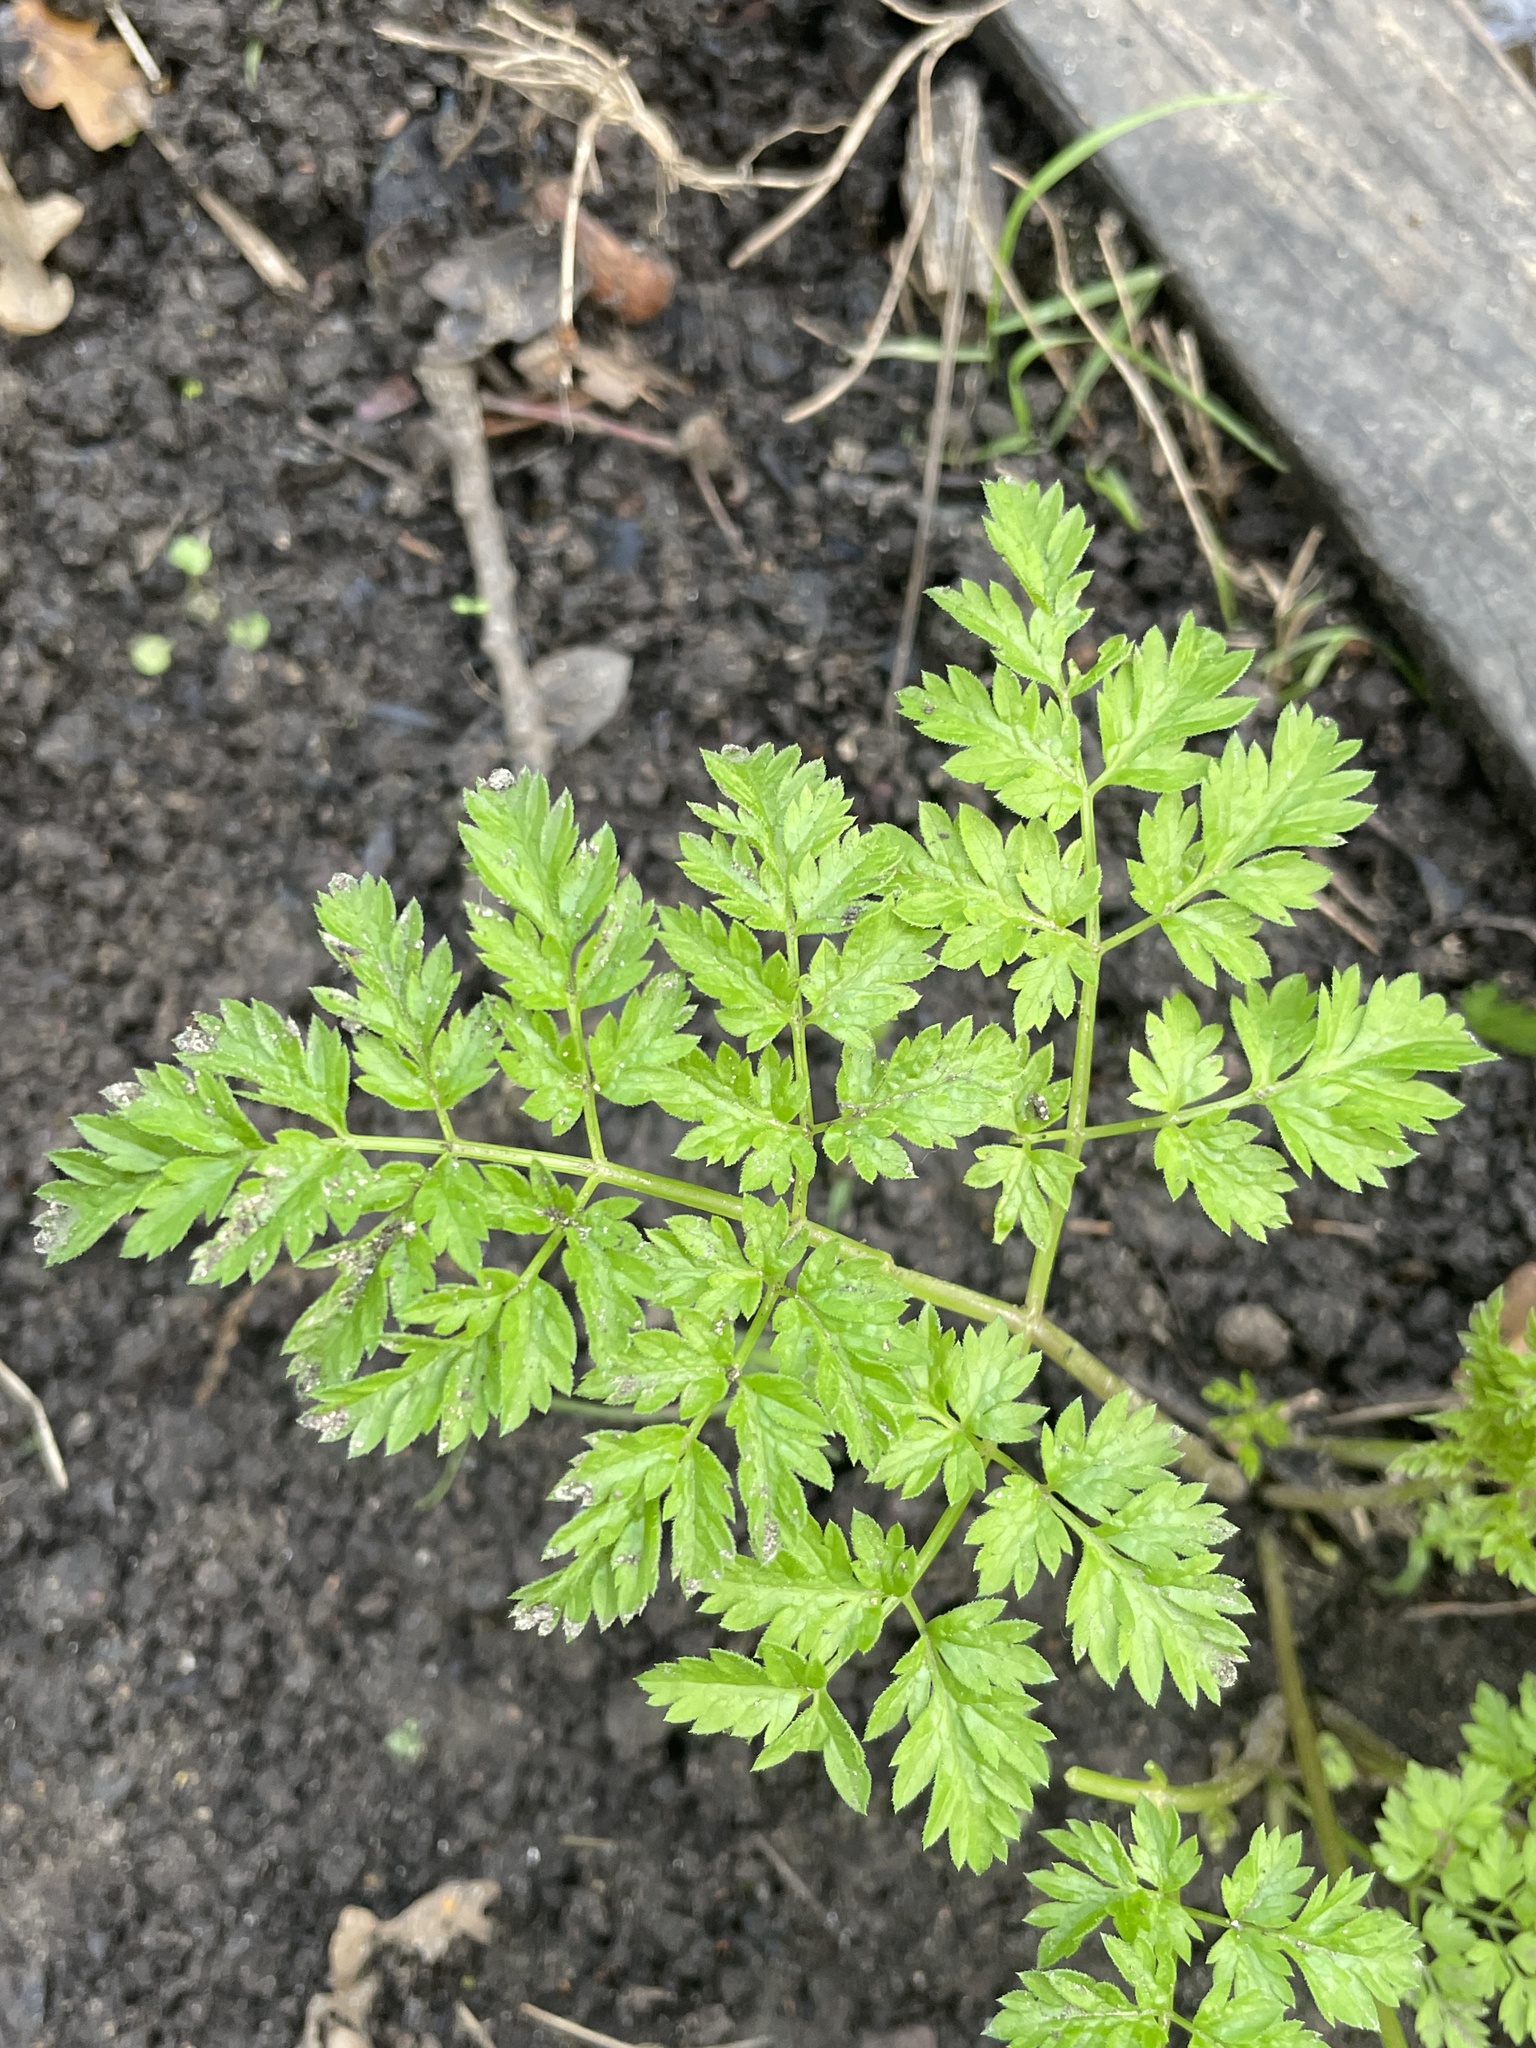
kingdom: Plantae
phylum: Tracheophyta
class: Magnoliopsida
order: Apiales
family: Apiaceae
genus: Anthriscus
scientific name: Anthriscus sylvestris
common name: Cow parsley
